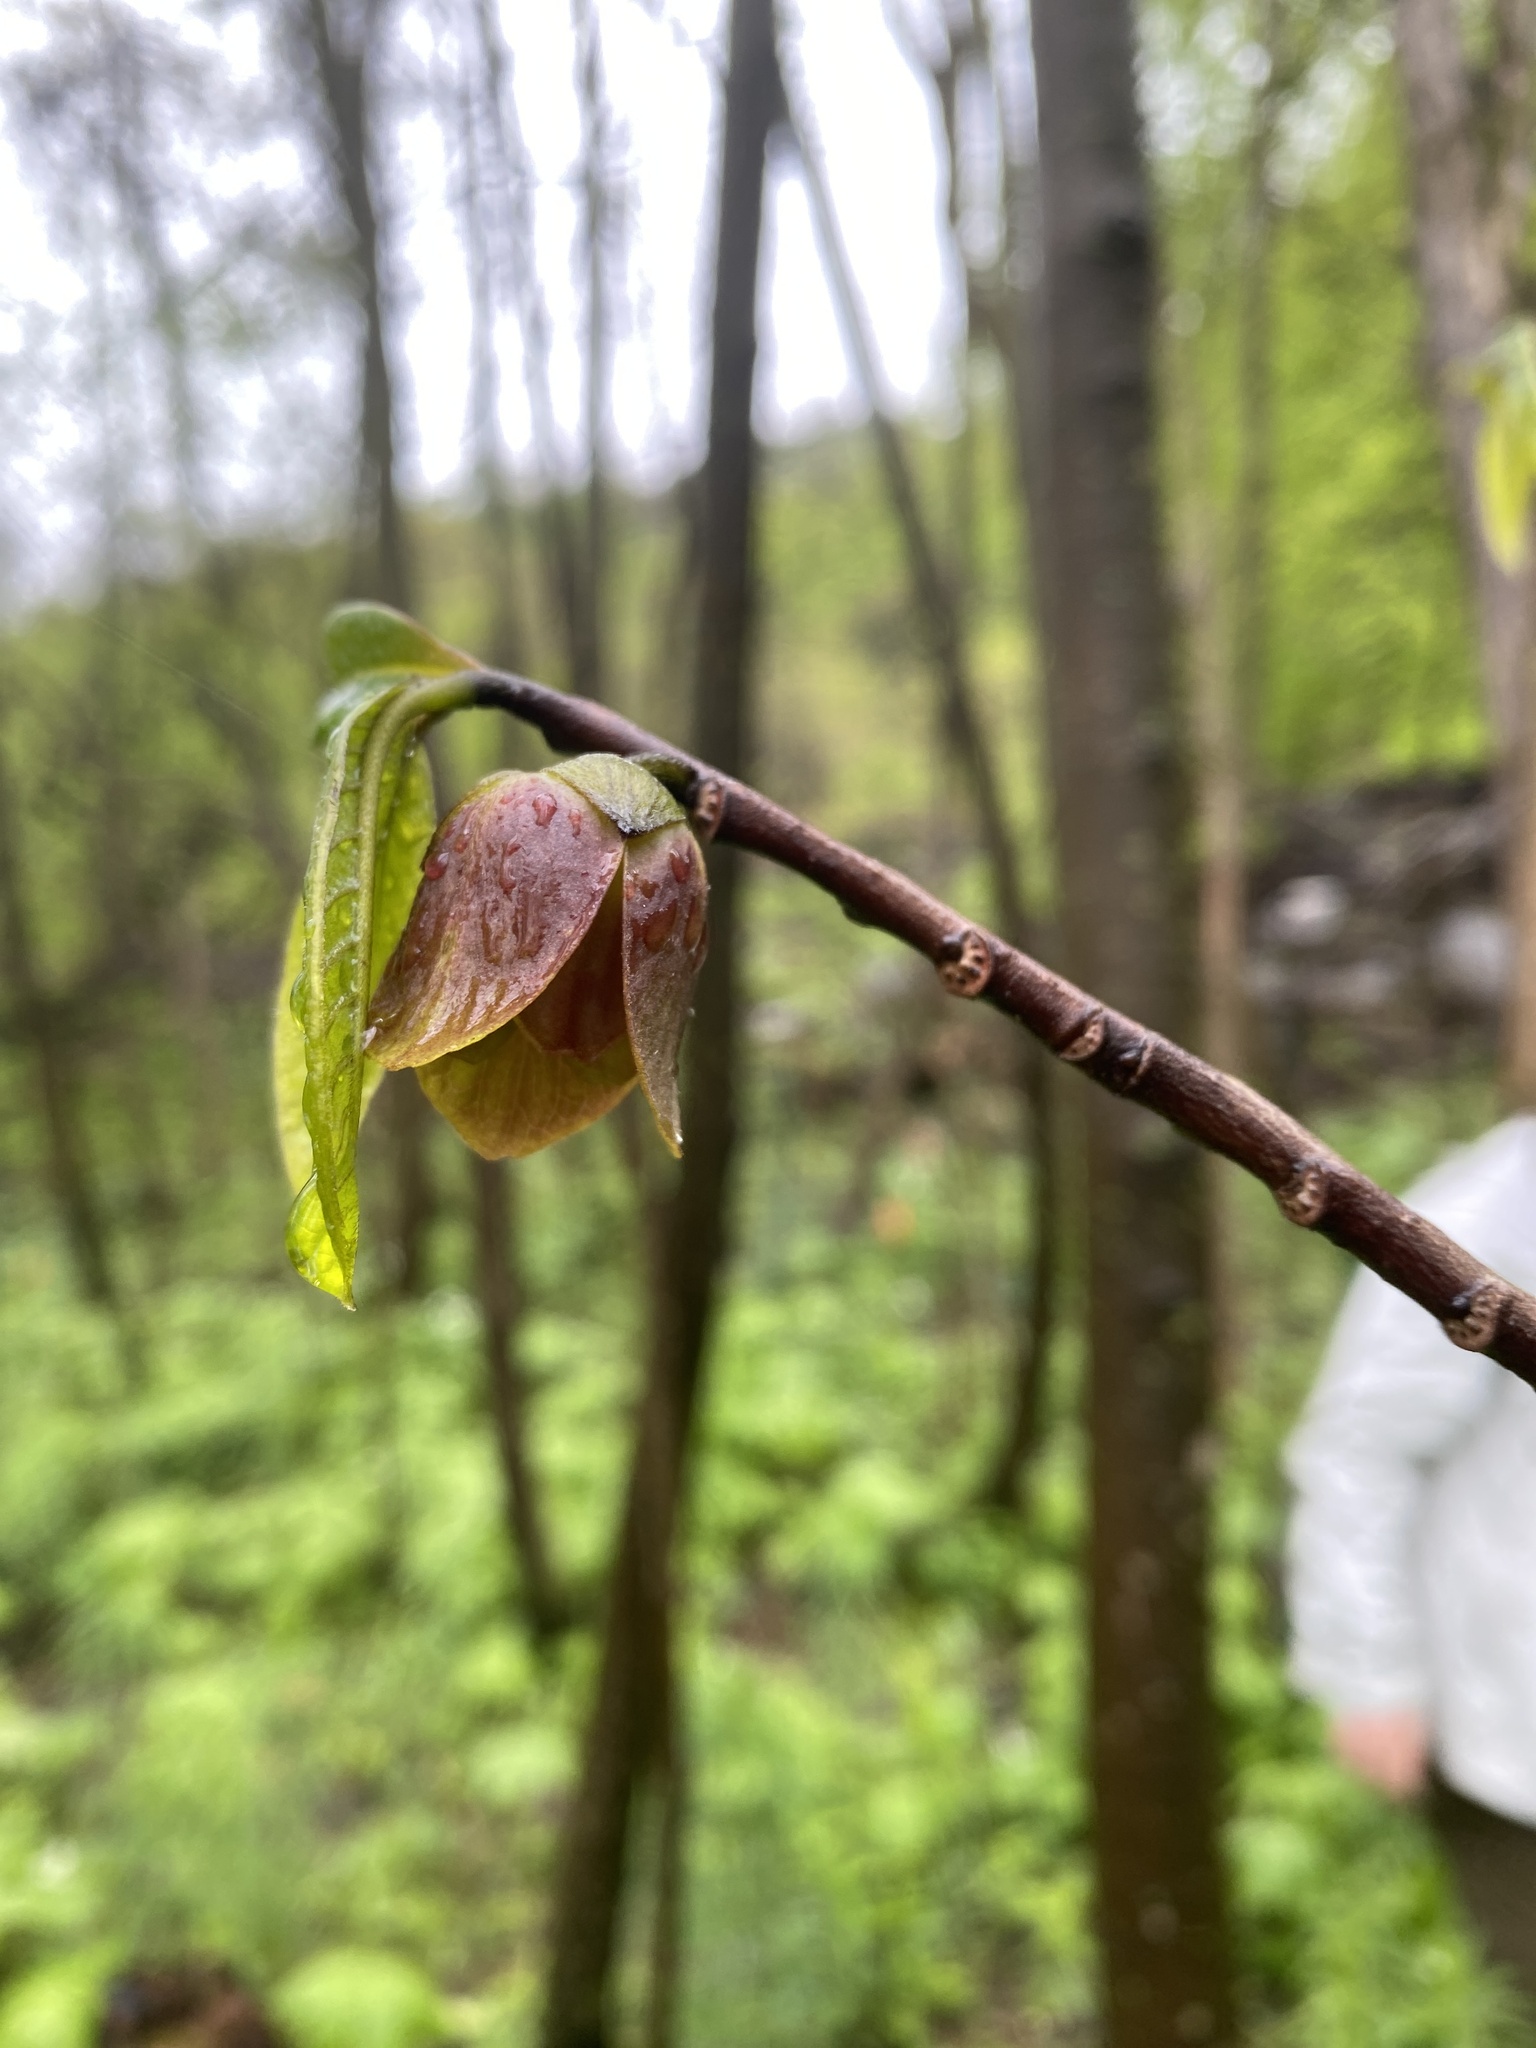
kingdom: Plantae
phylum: Tracheophyta
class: Magnoliopsida
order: Magnoliales
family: Annonaceae
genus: Asimina
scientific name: Asimina triloba
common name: Dog-banana
